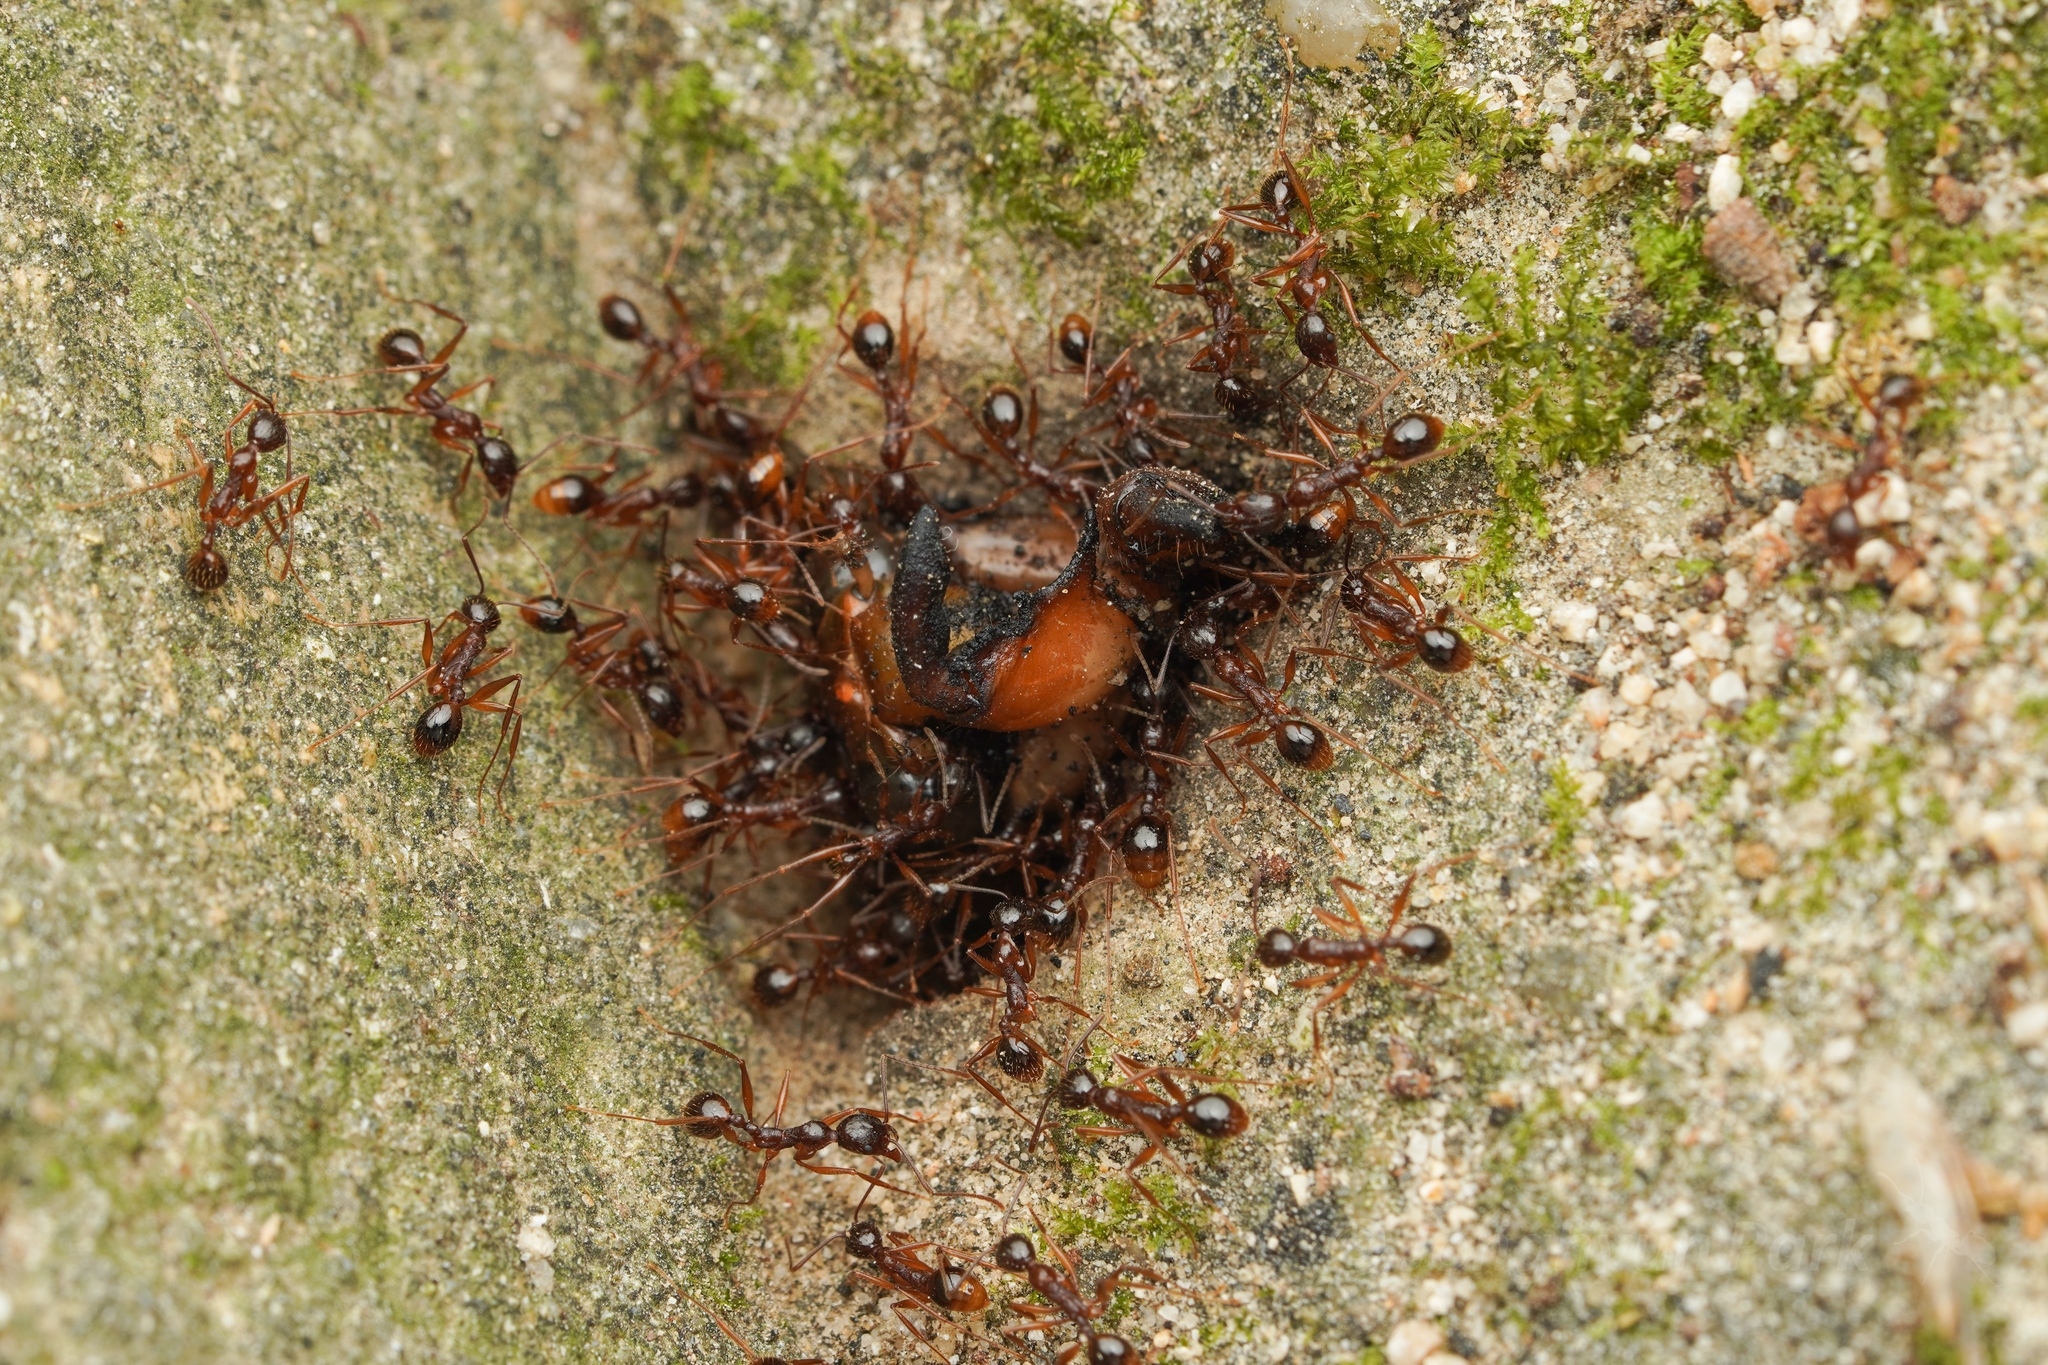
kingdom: Animalia
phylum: Arthropoda
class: Insecta
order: Hymenoptera
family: Formicidae
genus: Aphaenogaster
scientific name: Aphaenogaster famelica
